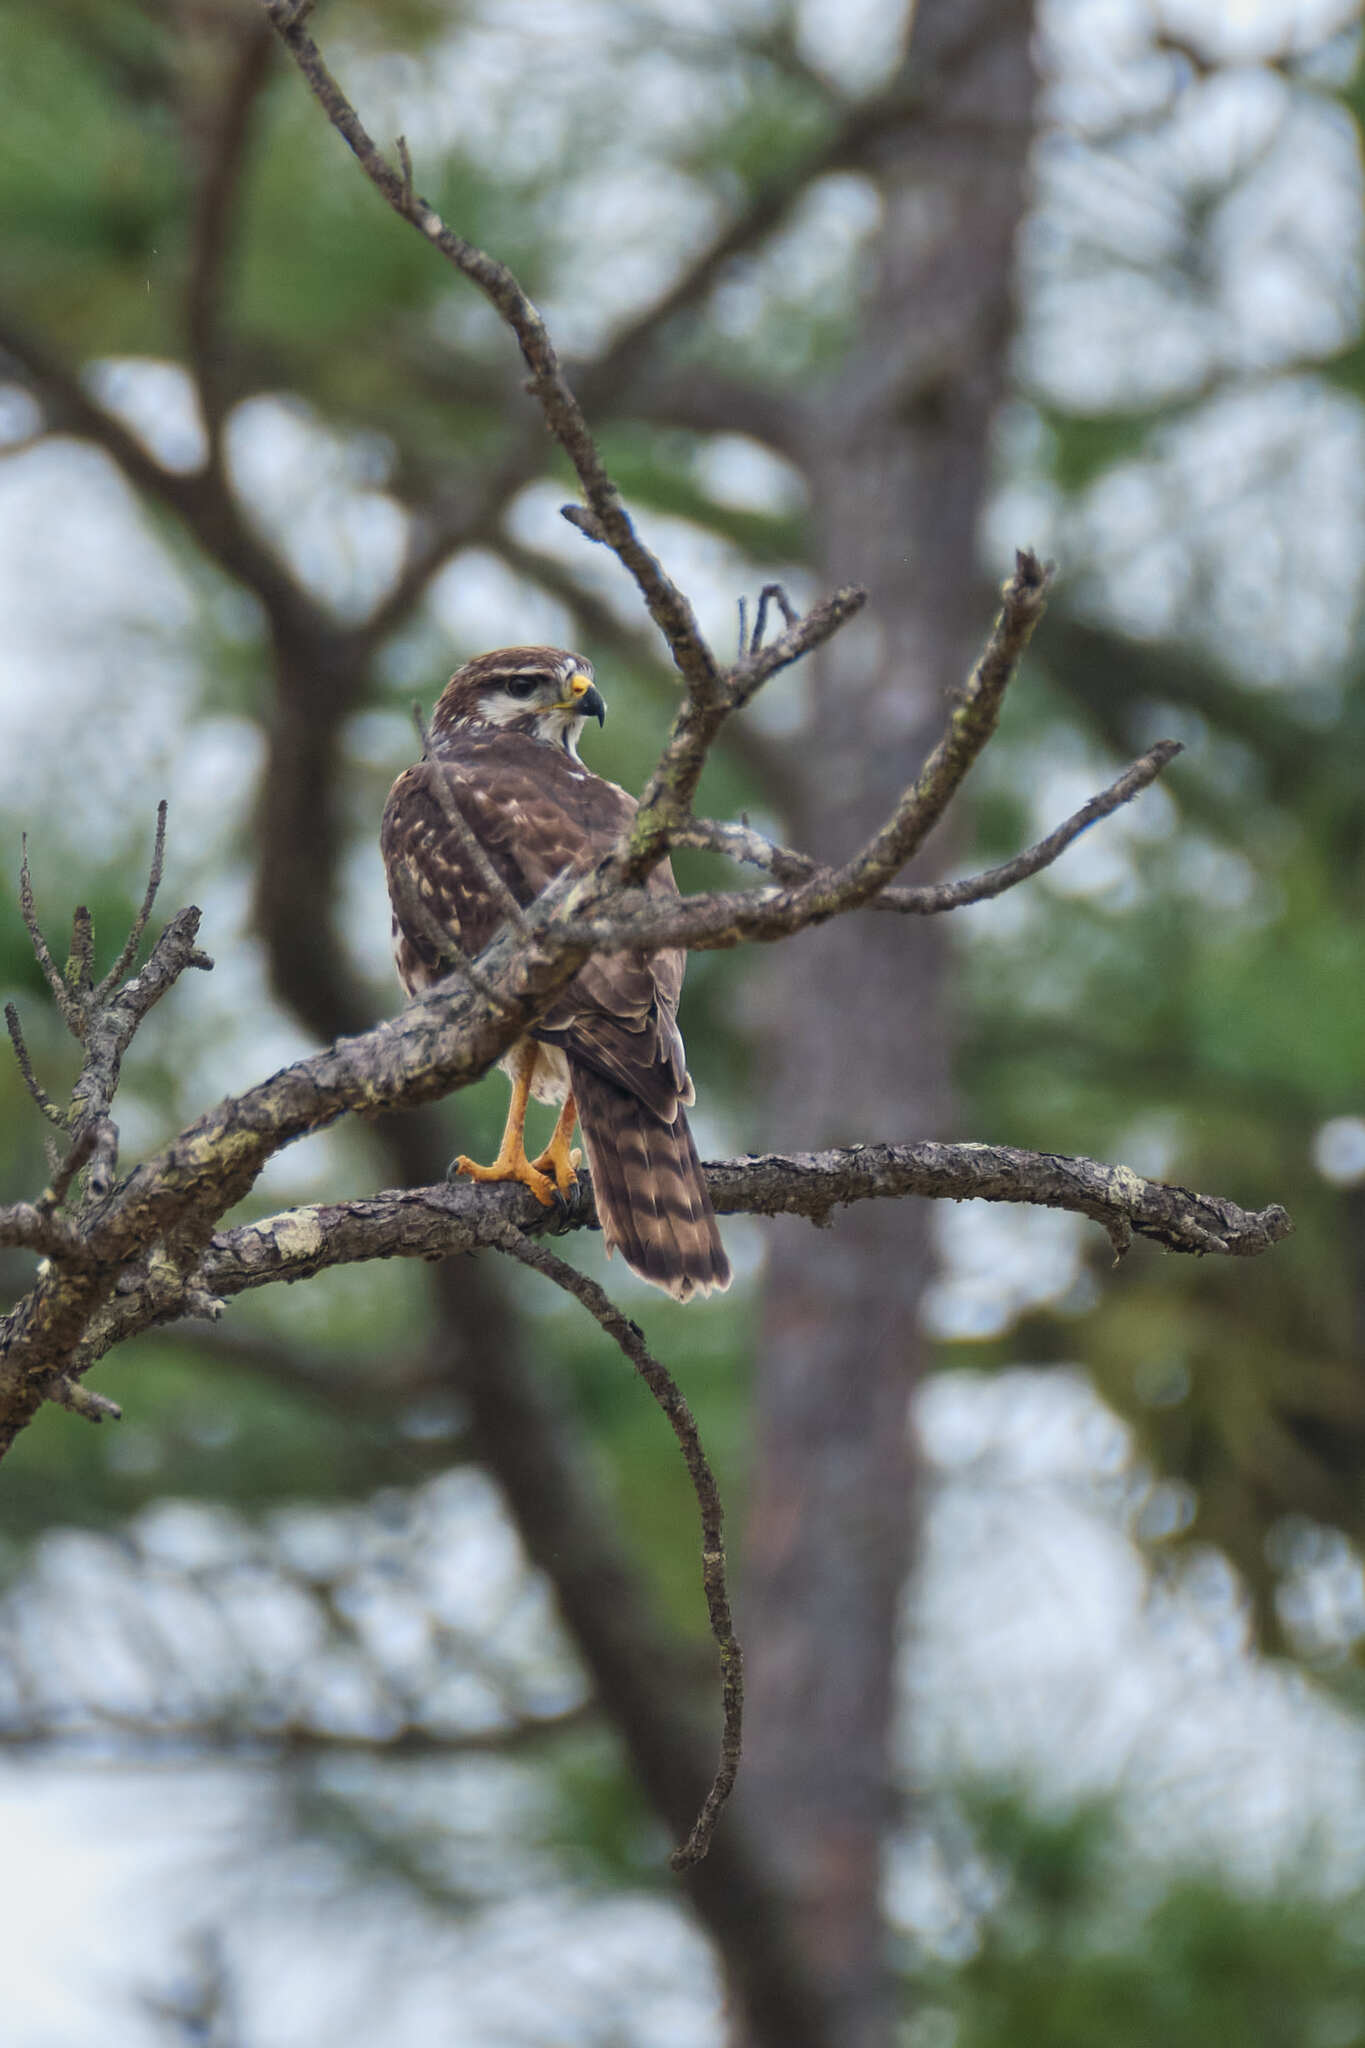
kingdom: Animalia
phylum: Chordata
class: Aves
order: Accipitriformes
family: Accipitridae
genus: Buteo
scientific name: Buteo nitidus
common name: Grey-lined hawk
